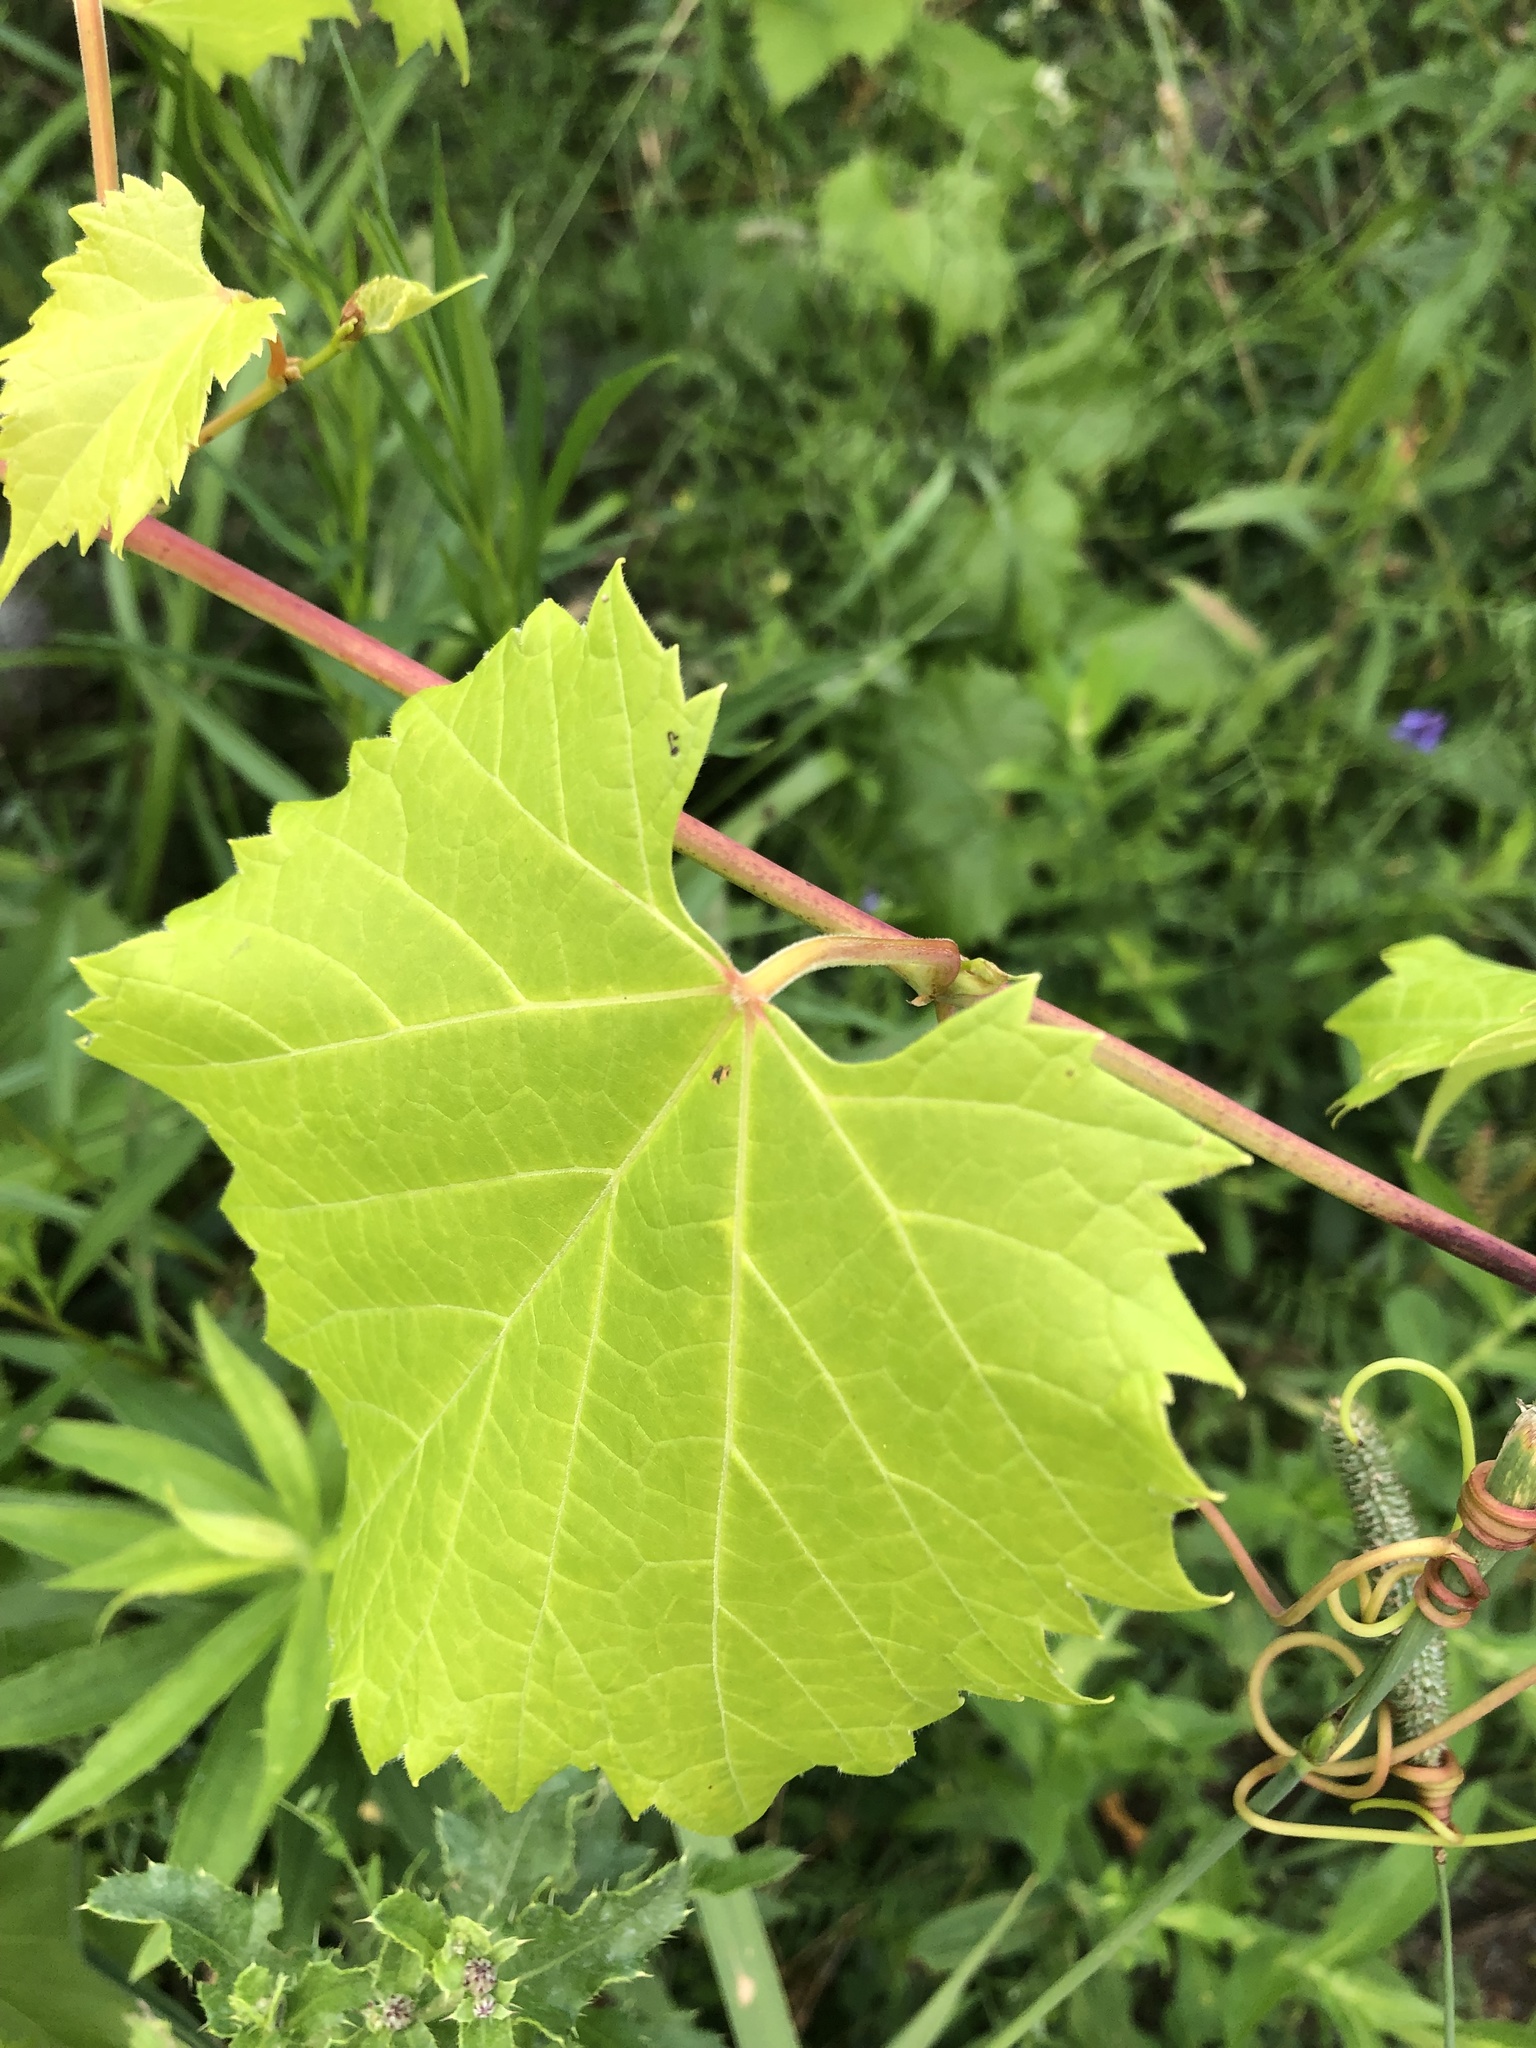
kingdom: Plantae
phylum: Tracheophyta
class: Magnoliopsida
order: Vitales
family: Vitaceae
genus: Vitis
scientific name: Vitis riparia
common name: Frost grape
